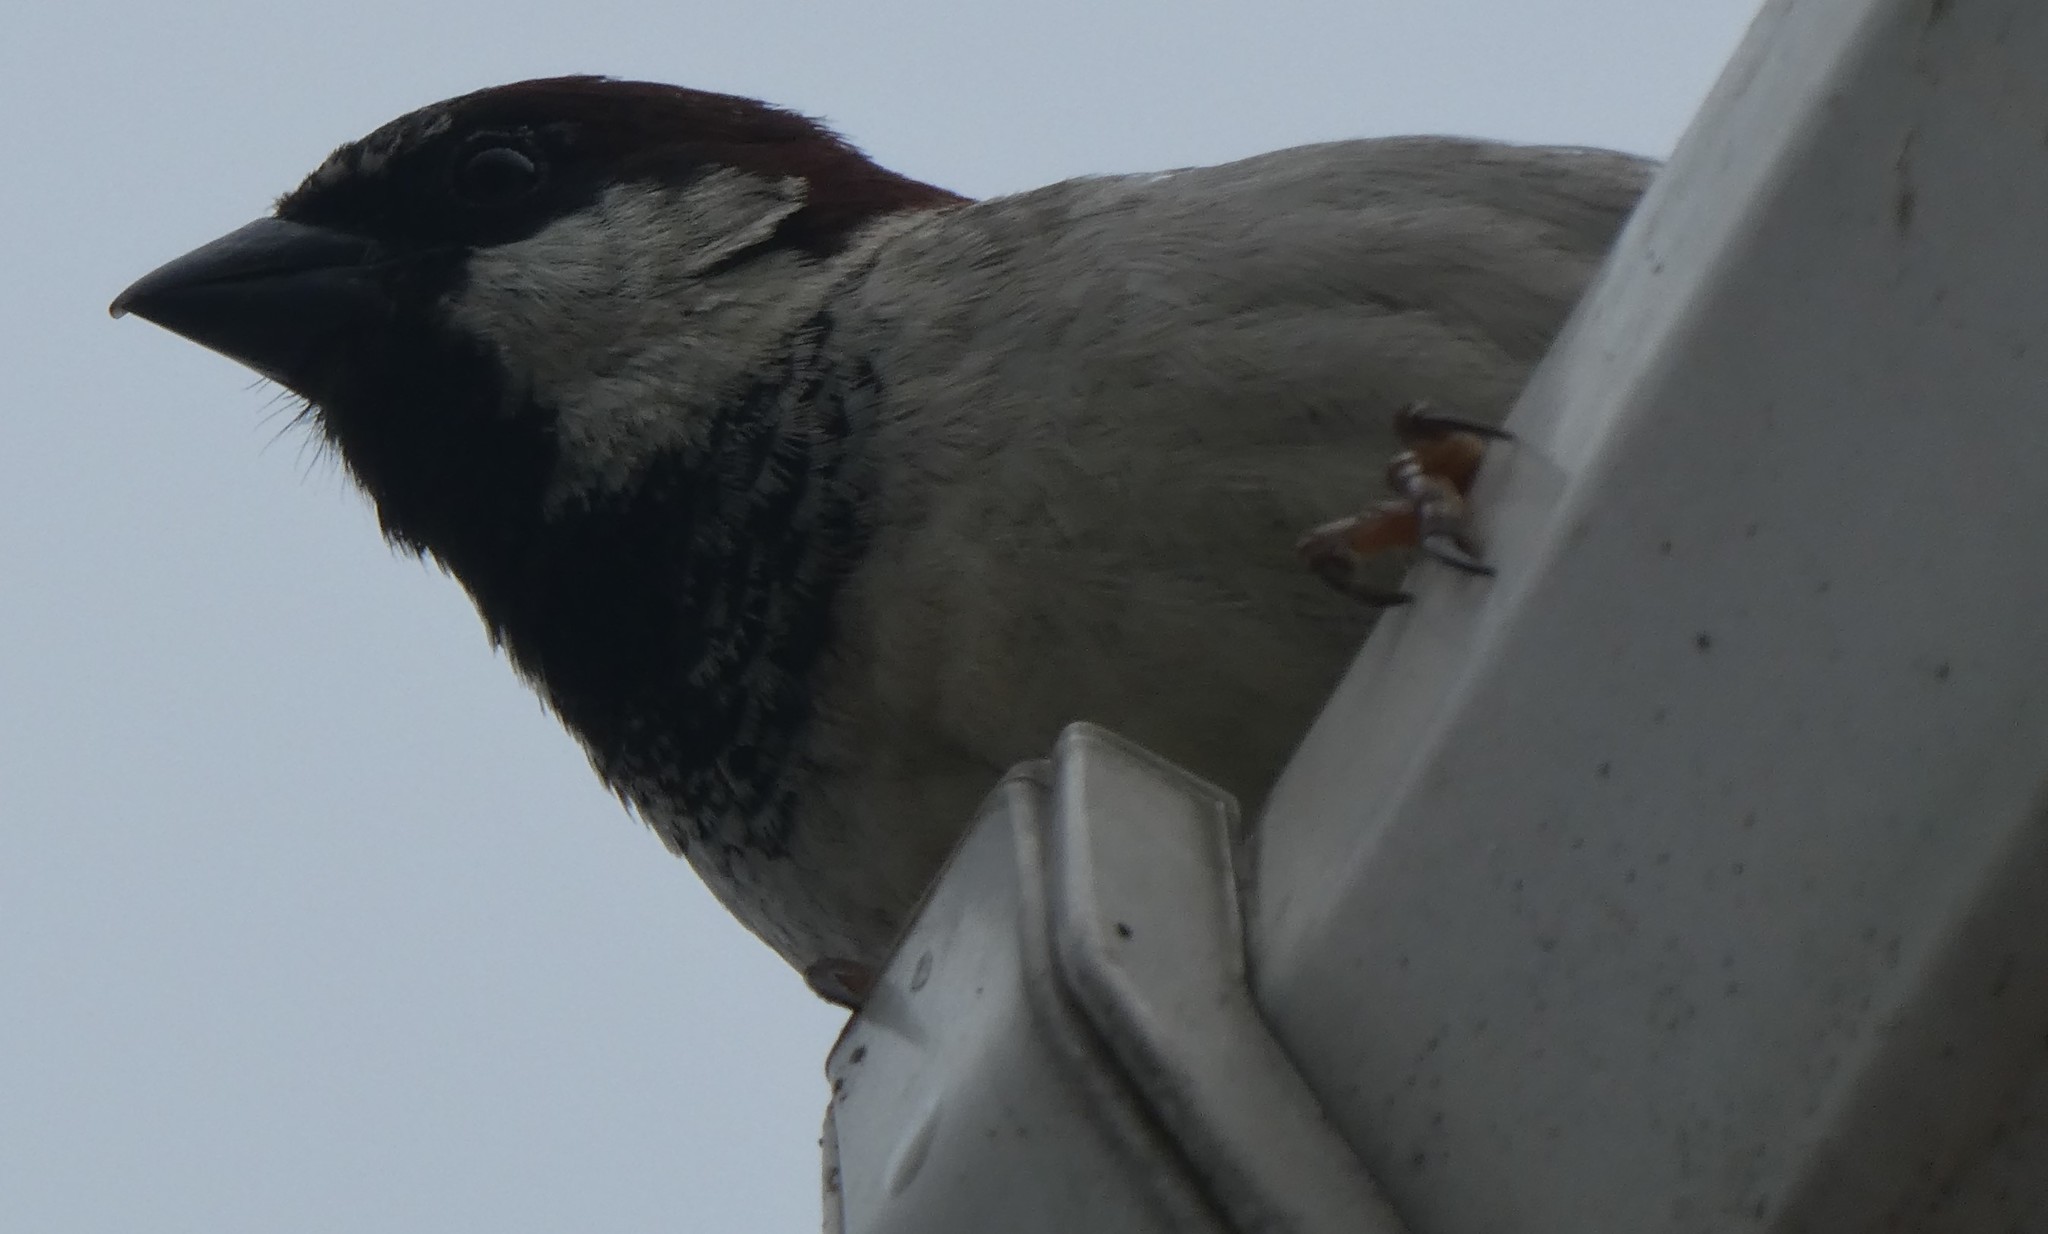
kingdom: Animalia
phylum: Chordata
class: Aves
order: Passeriformes
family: Passeridae
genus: Passer
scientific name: Passer domesticus
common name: House sparrow
